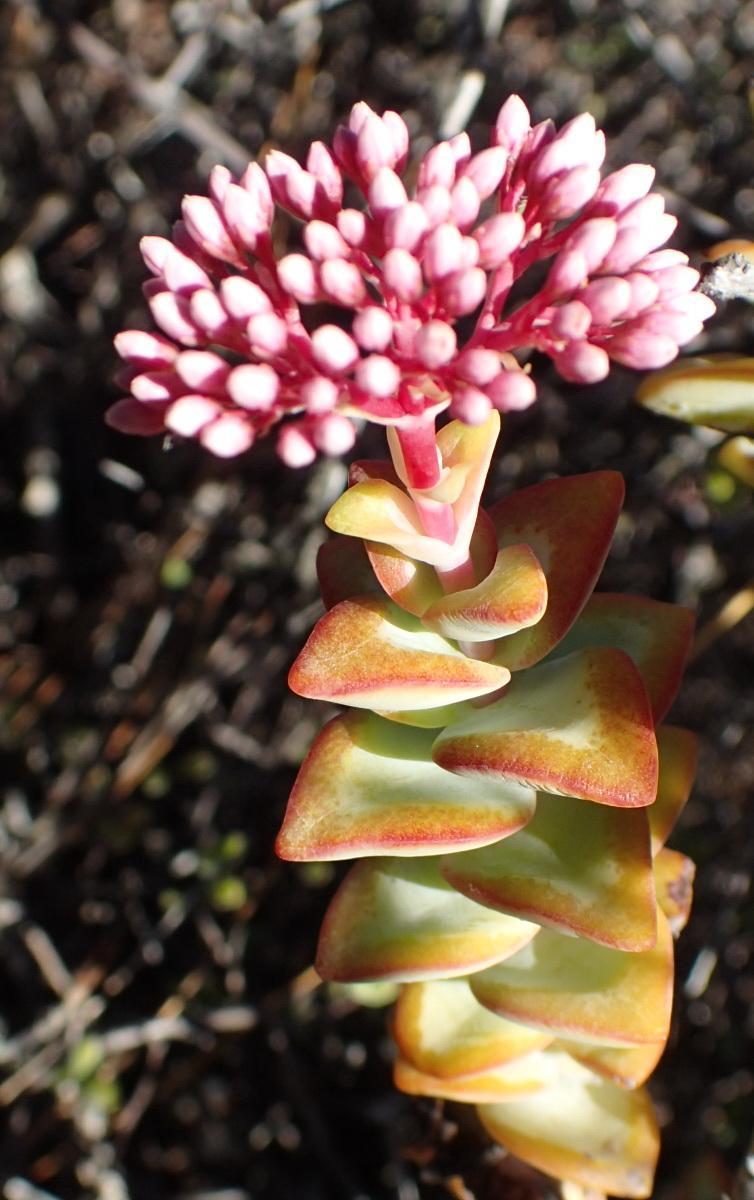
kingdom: Plantae
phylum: Tracheophyta
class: Magnoliopsida
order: Saxifragales
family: Crassulaceae
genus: Crassula
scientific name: Crassula rupestris
